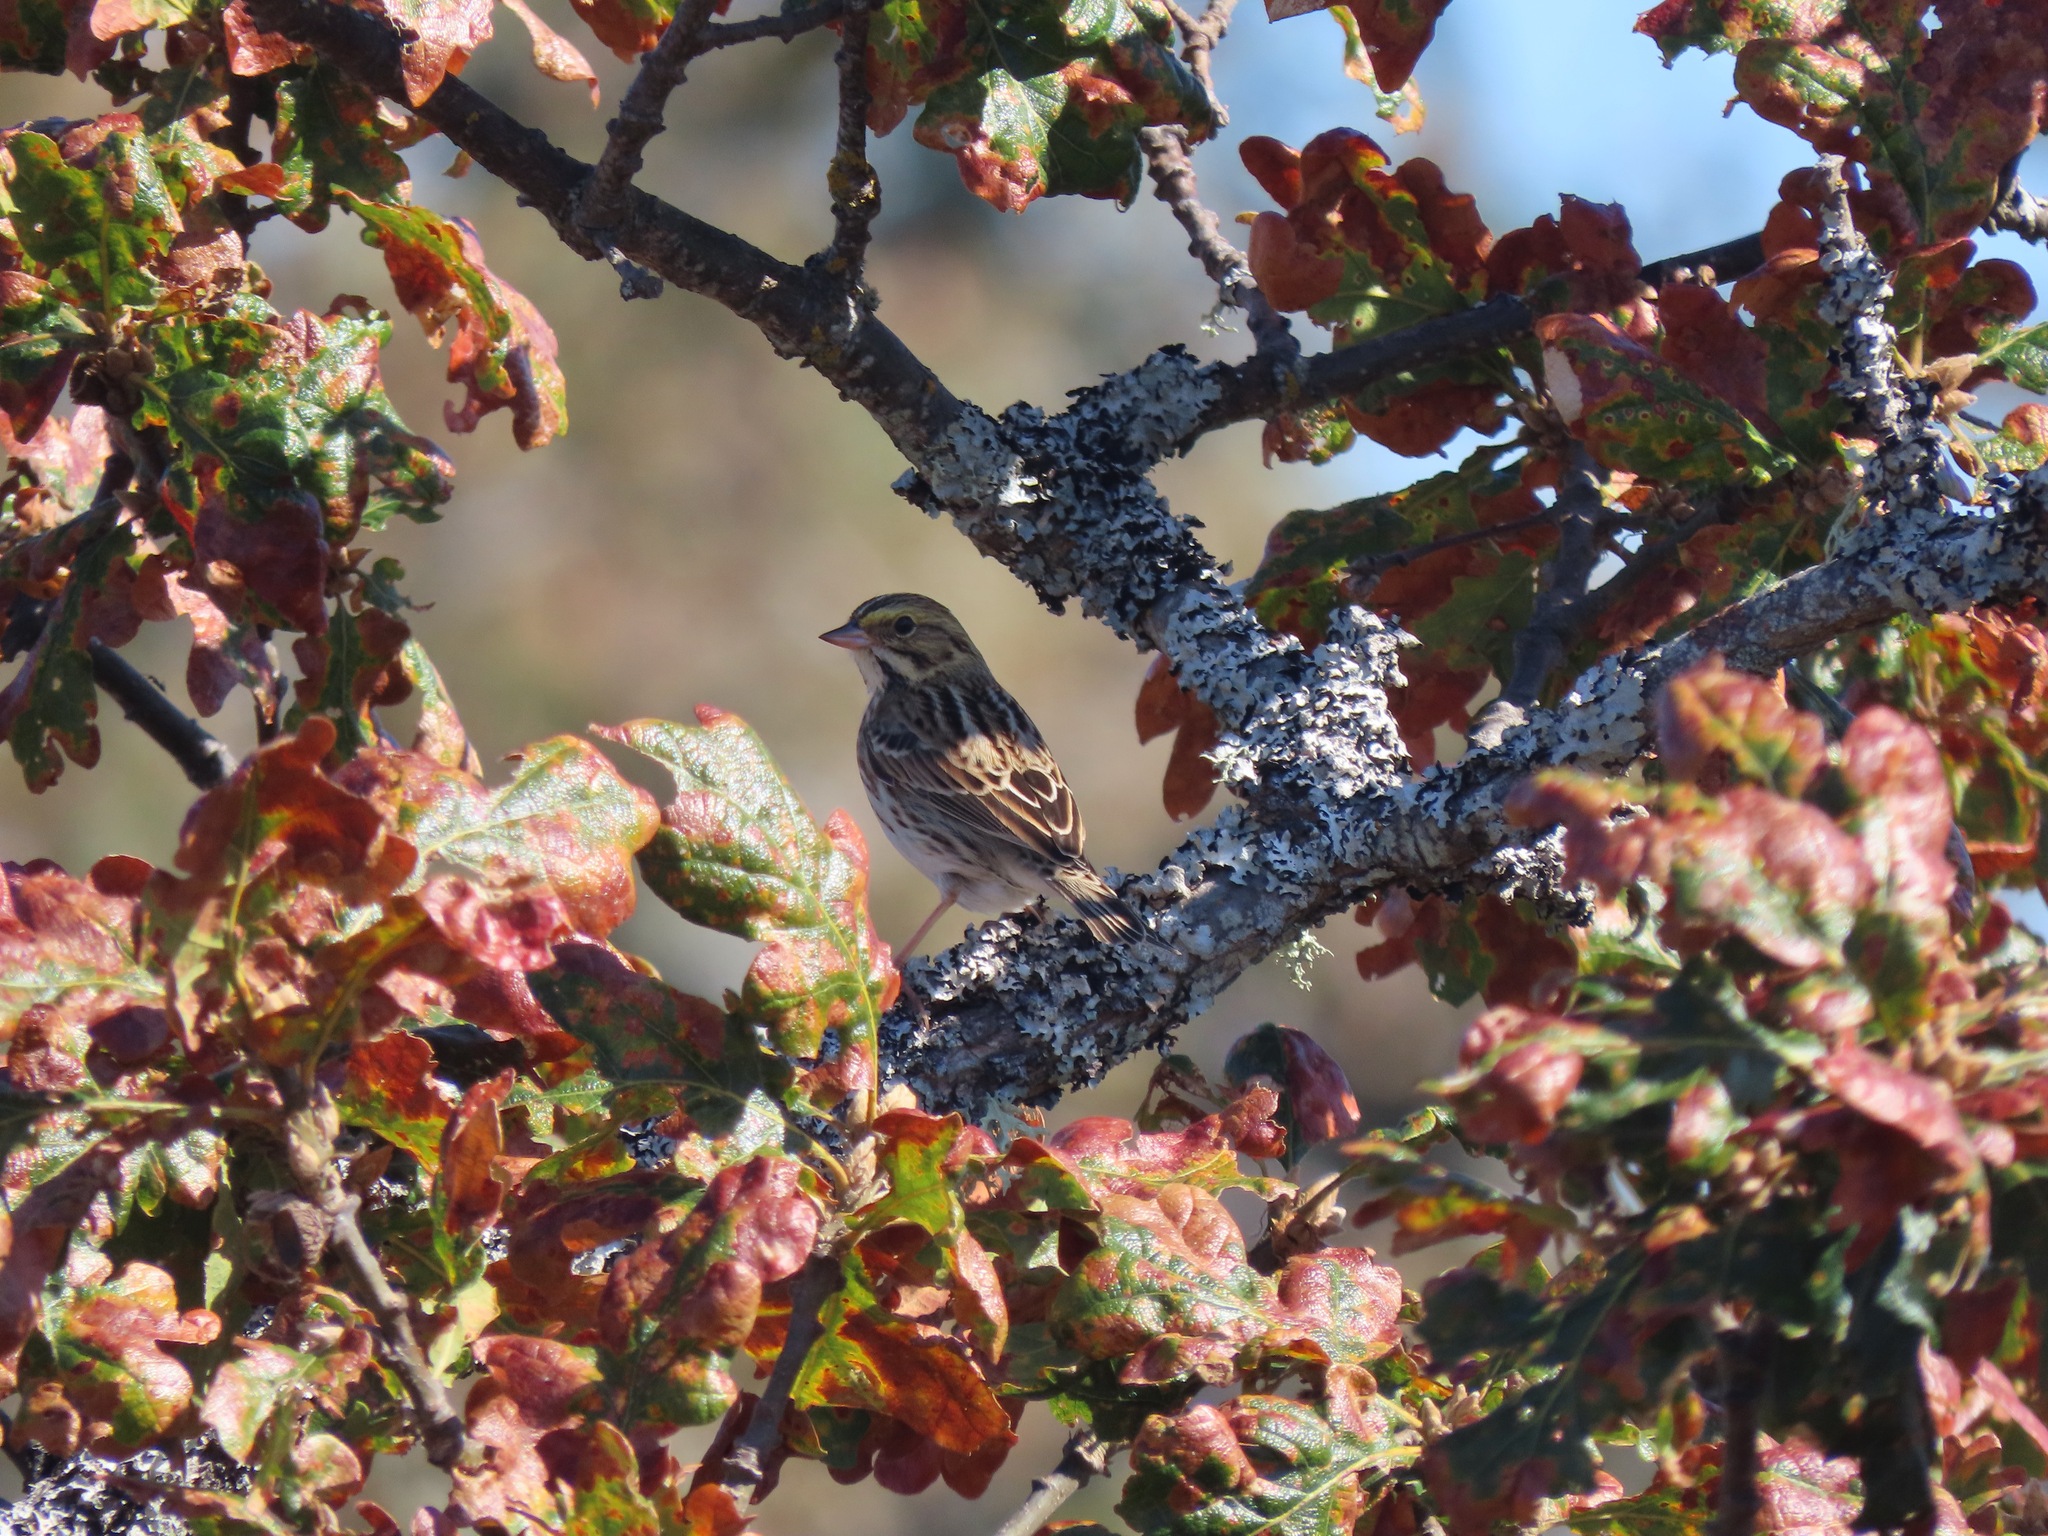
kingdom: Animalia
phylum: Chordata
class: Aves
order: Passeriformes
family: Passerellidae
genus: Passerculus
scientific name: Passerculus sandwichensis
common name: Savannah sparrow
